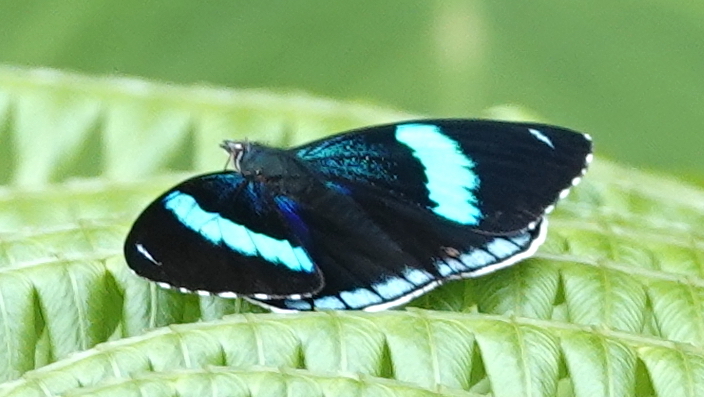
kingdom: Animalia
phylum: Arthropoda
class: Insecta
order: Lepidoptera
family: Nymphalidae
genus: Perisama
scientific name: Perisama bonplandii
